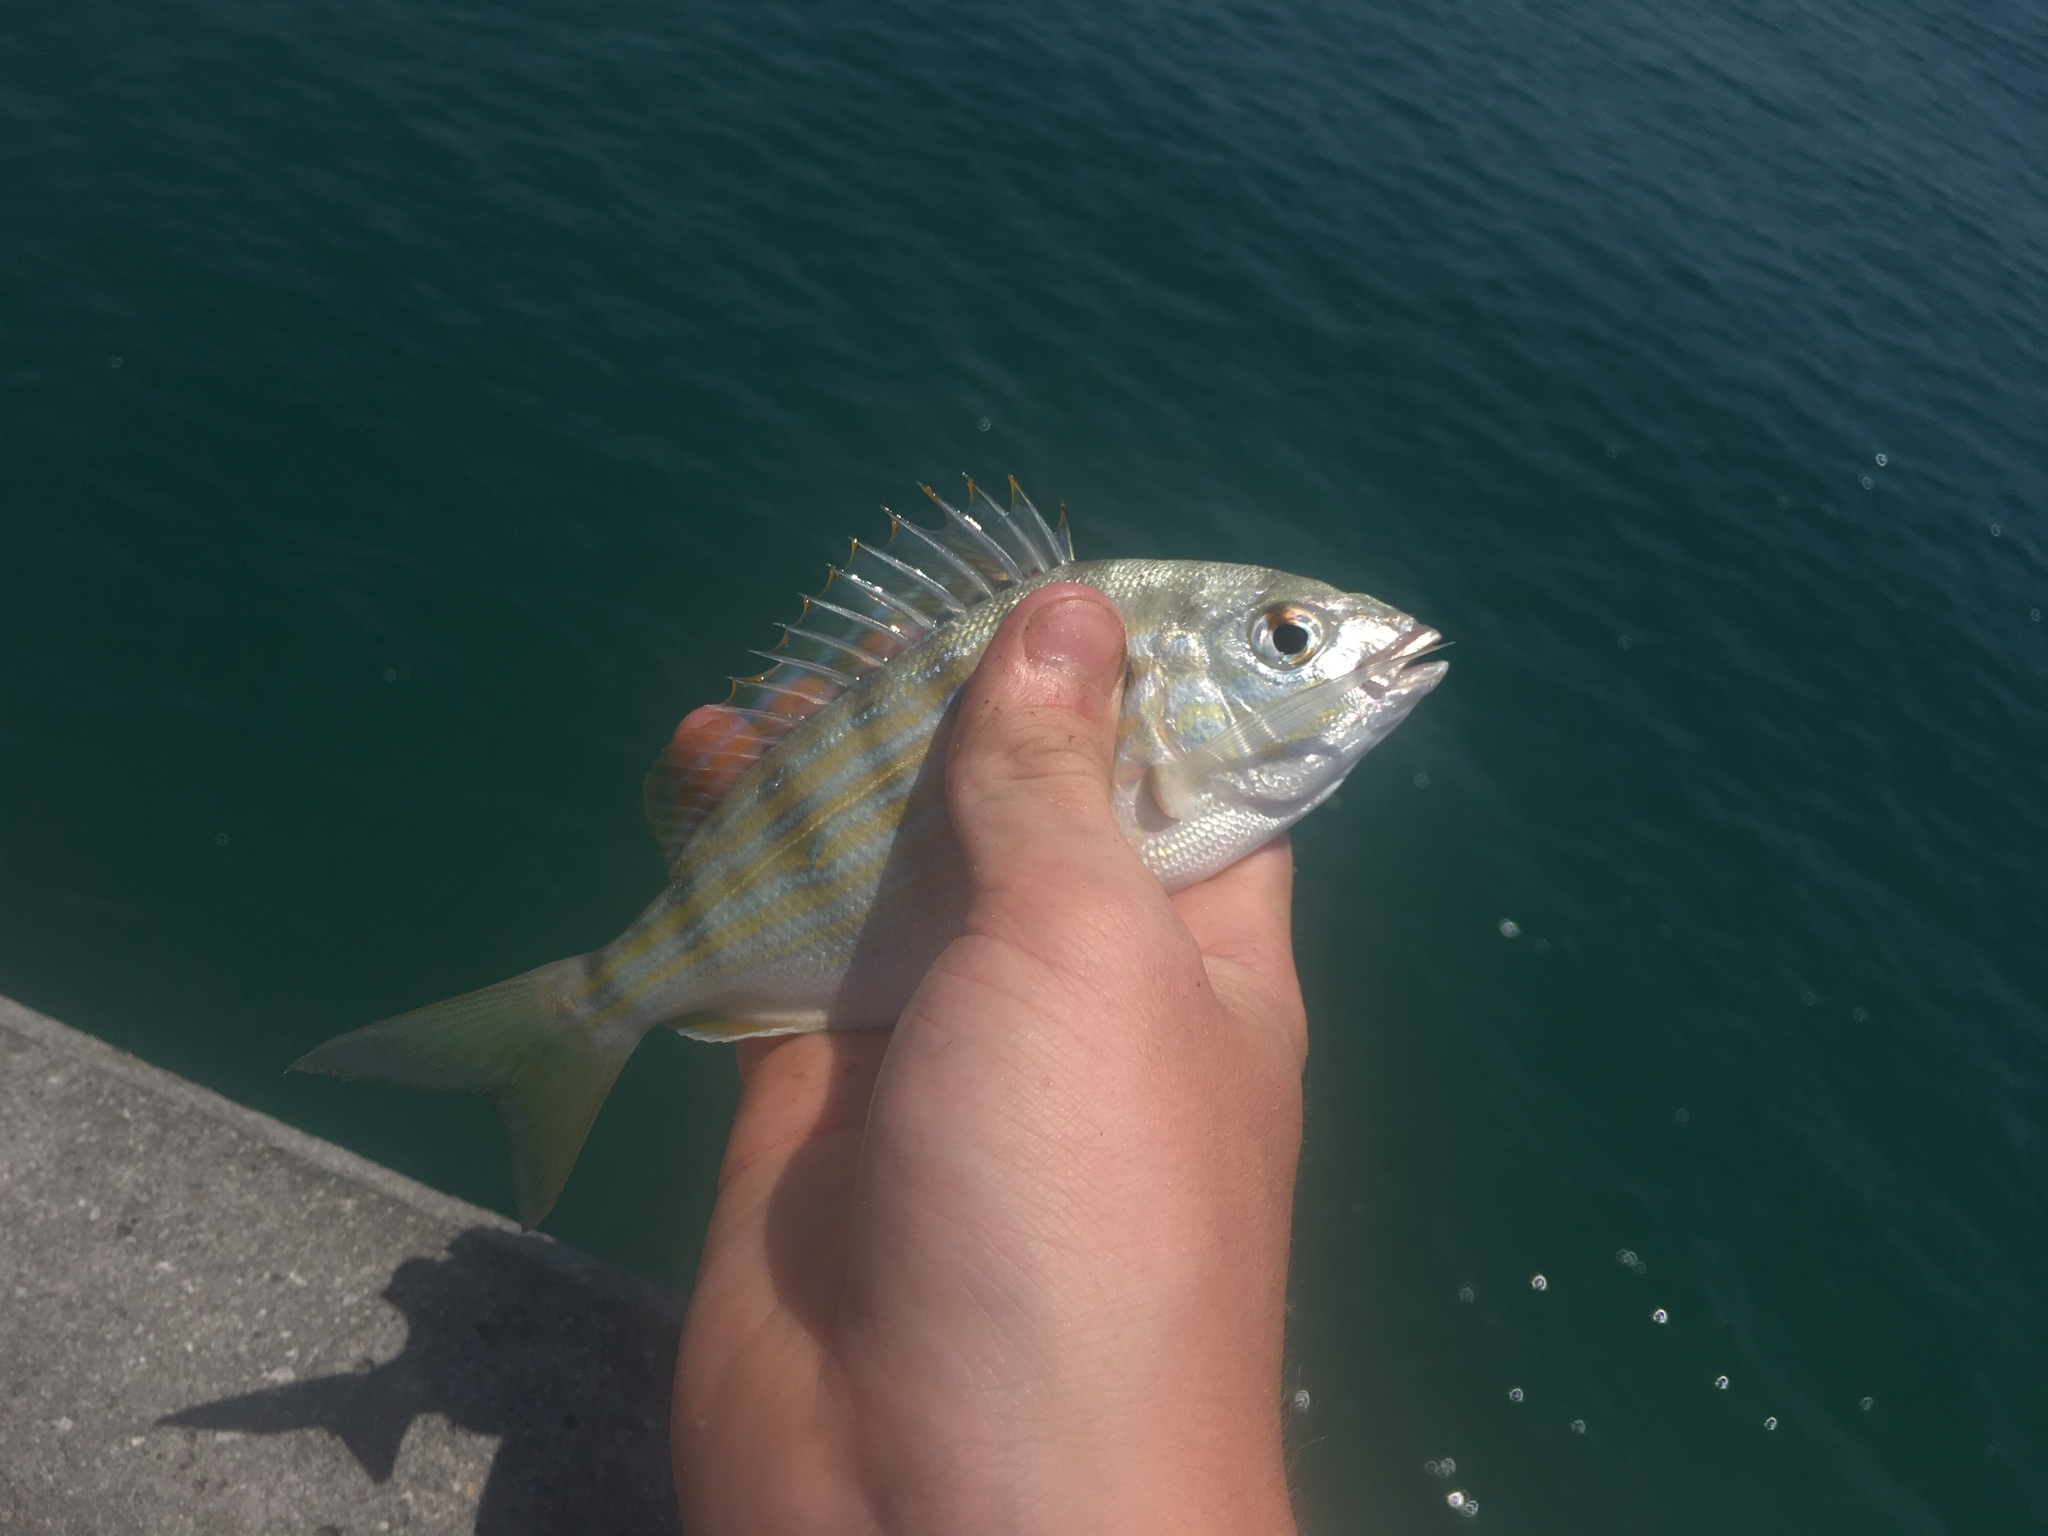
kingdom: Animalia
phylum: Chordata
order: Perciformes
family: Sparidae
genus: Lagodon
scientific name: Lagodon rhomboides
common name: Pinfish
